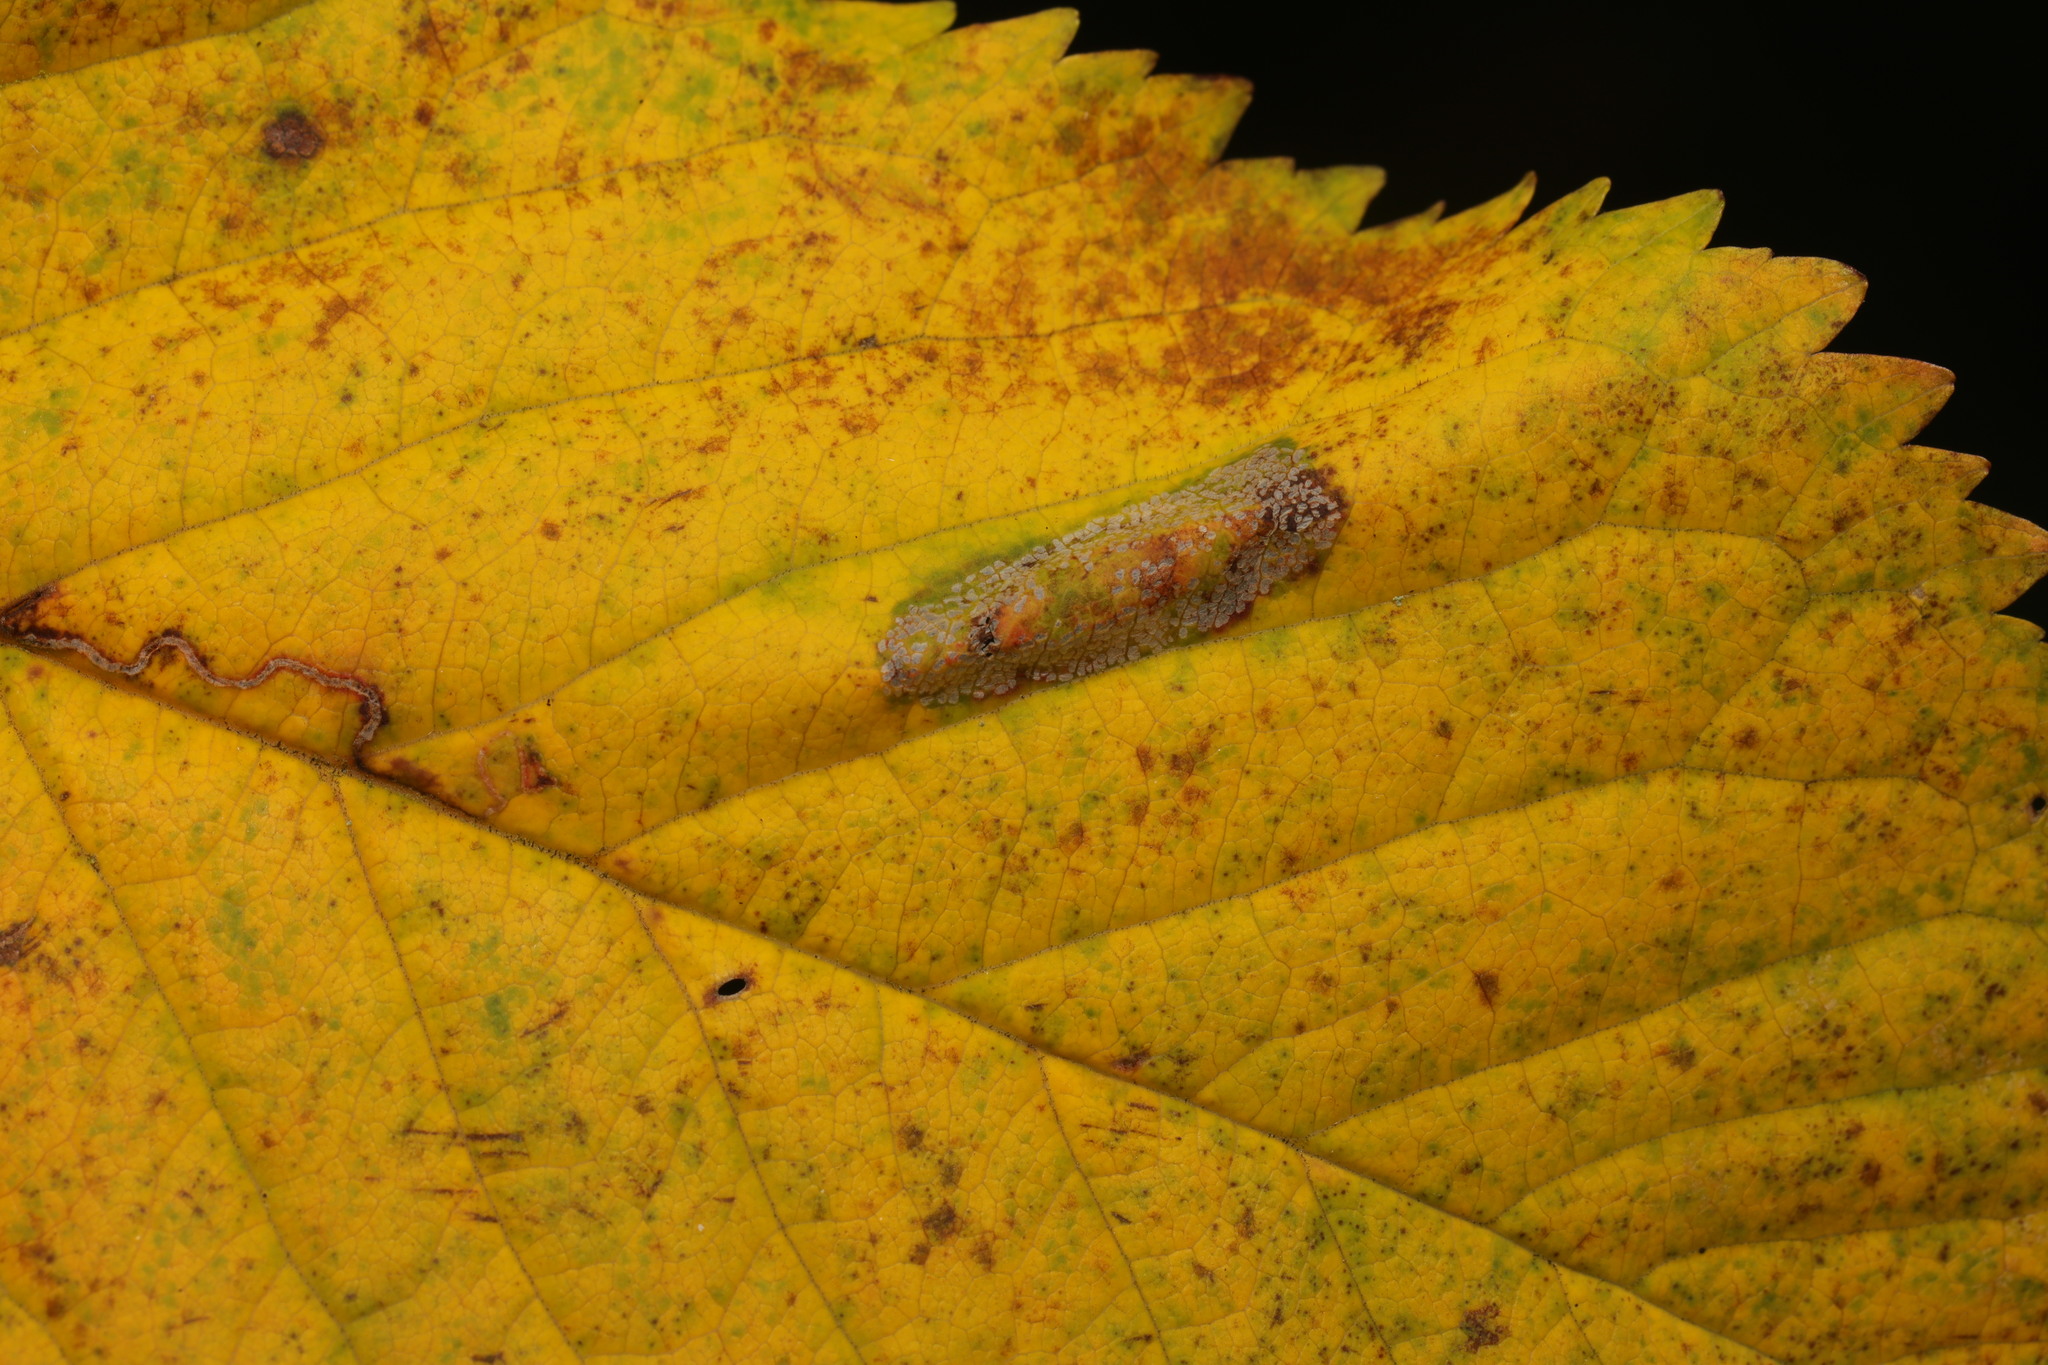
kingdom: Animalia
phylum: Arthropoda
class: Insecta
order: Lepidoptera
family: Gracillariidae
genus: Phyllonorycter
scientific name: Phyllonorycter cerasicolella
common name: Cherry midget
